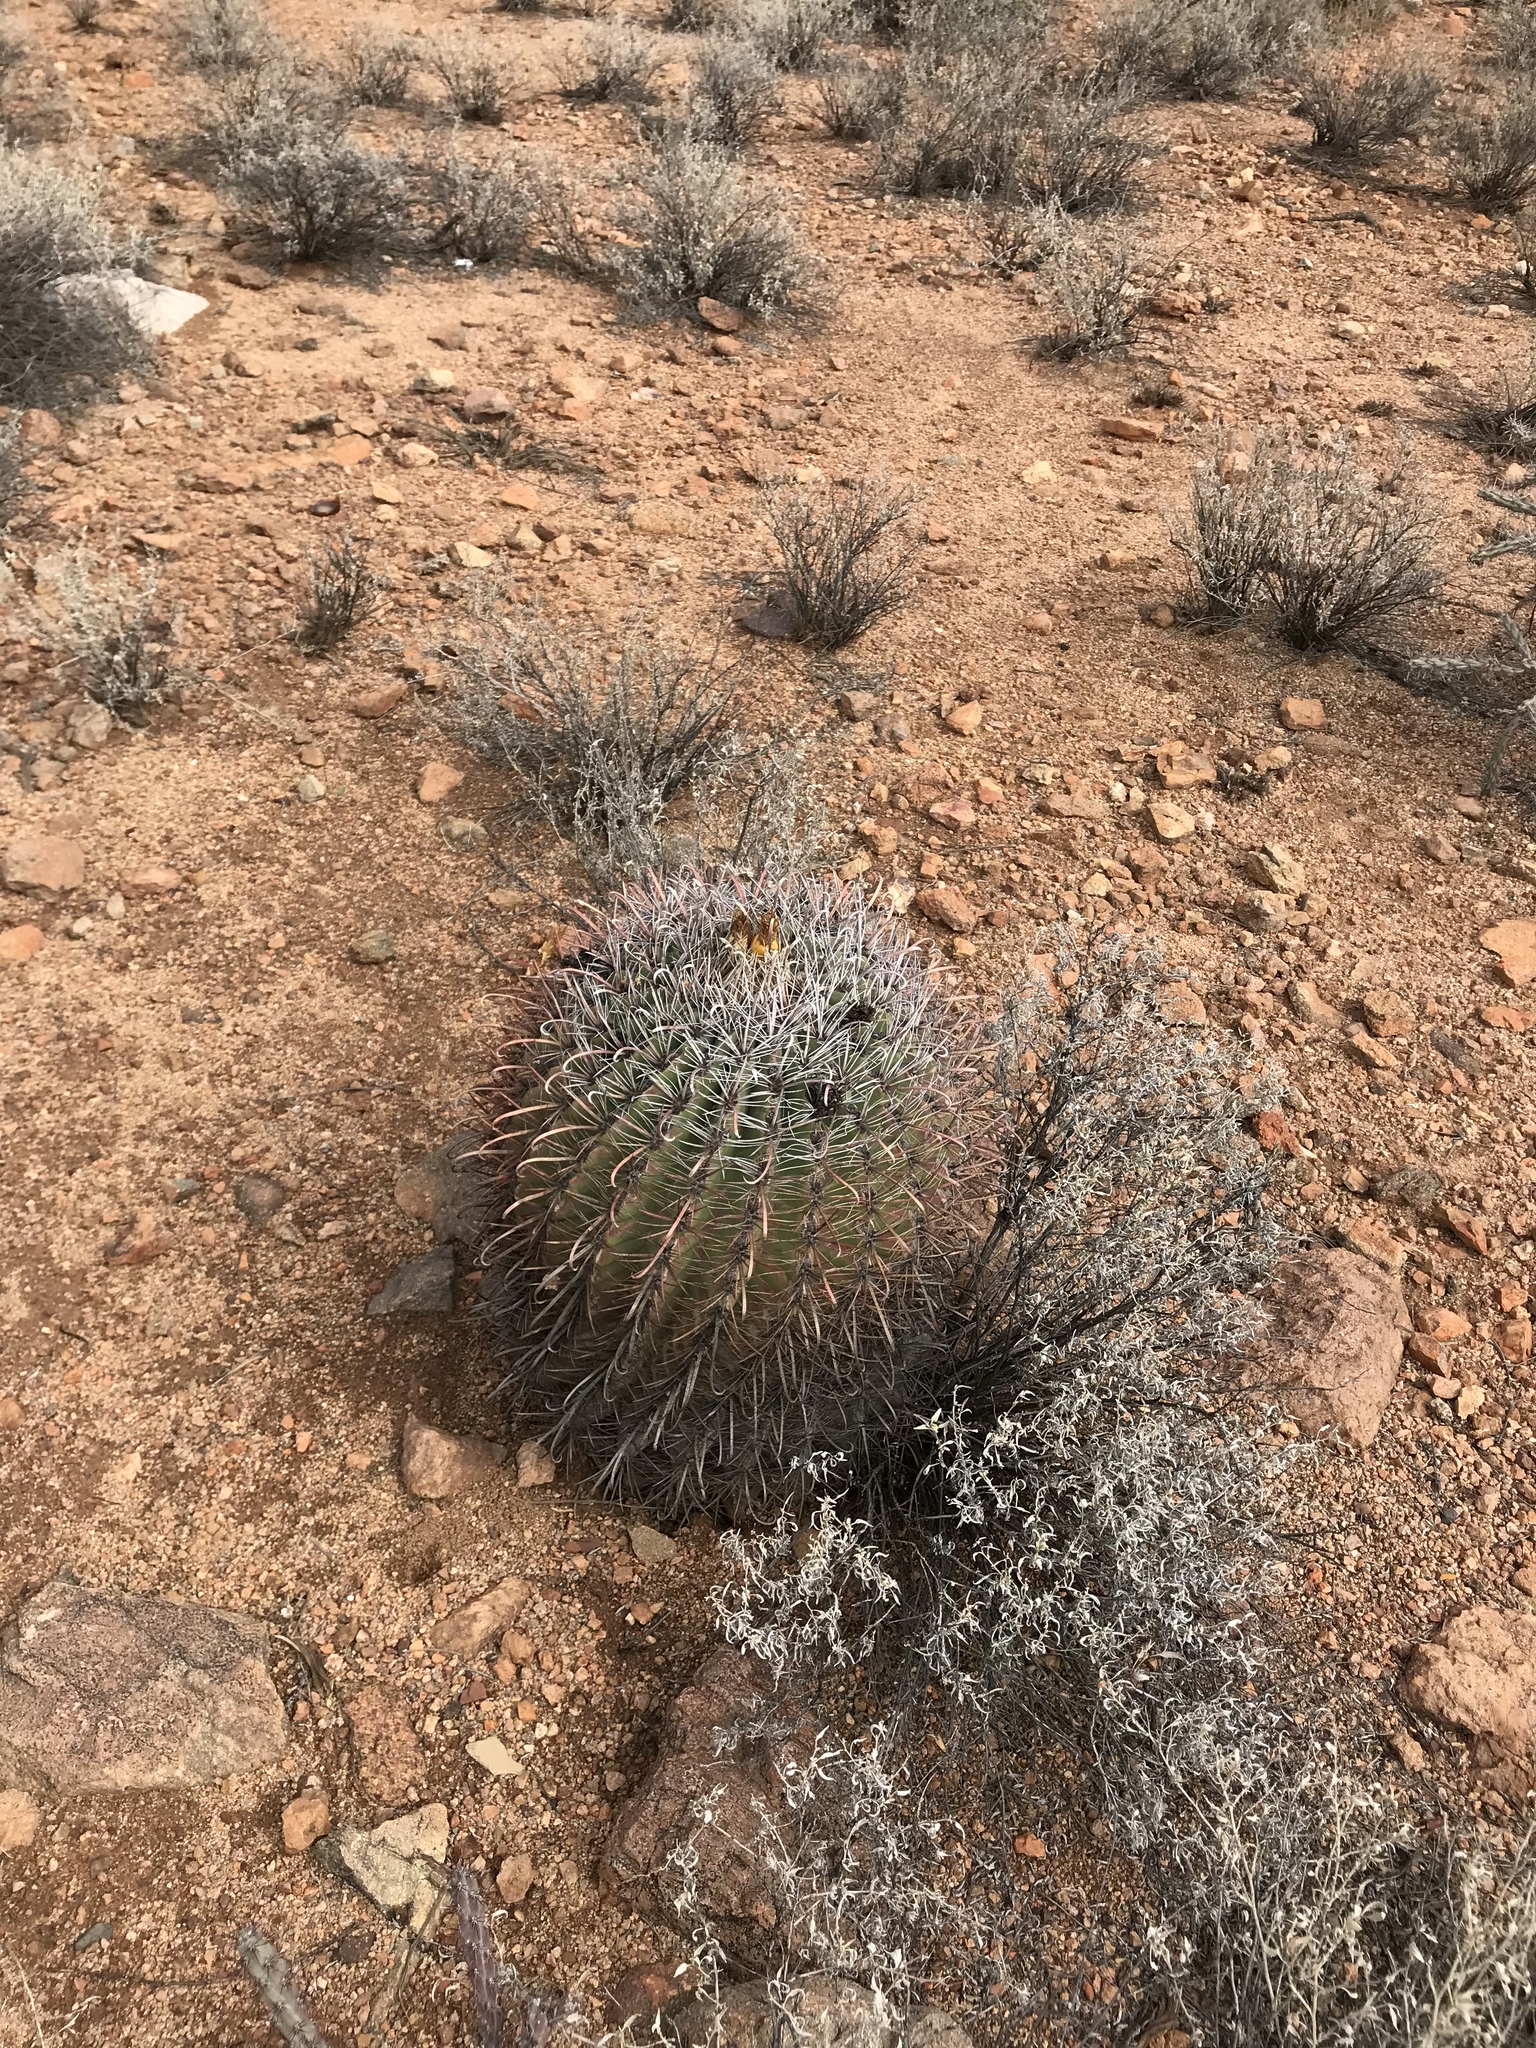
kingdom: Plantae
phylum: Tracheophyta
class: Magnoliopsida
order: Caryophyllales
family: Cactaceae
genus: Ferocactus
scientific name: Ferocactus wislizeni
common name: Candy barrel cactus
